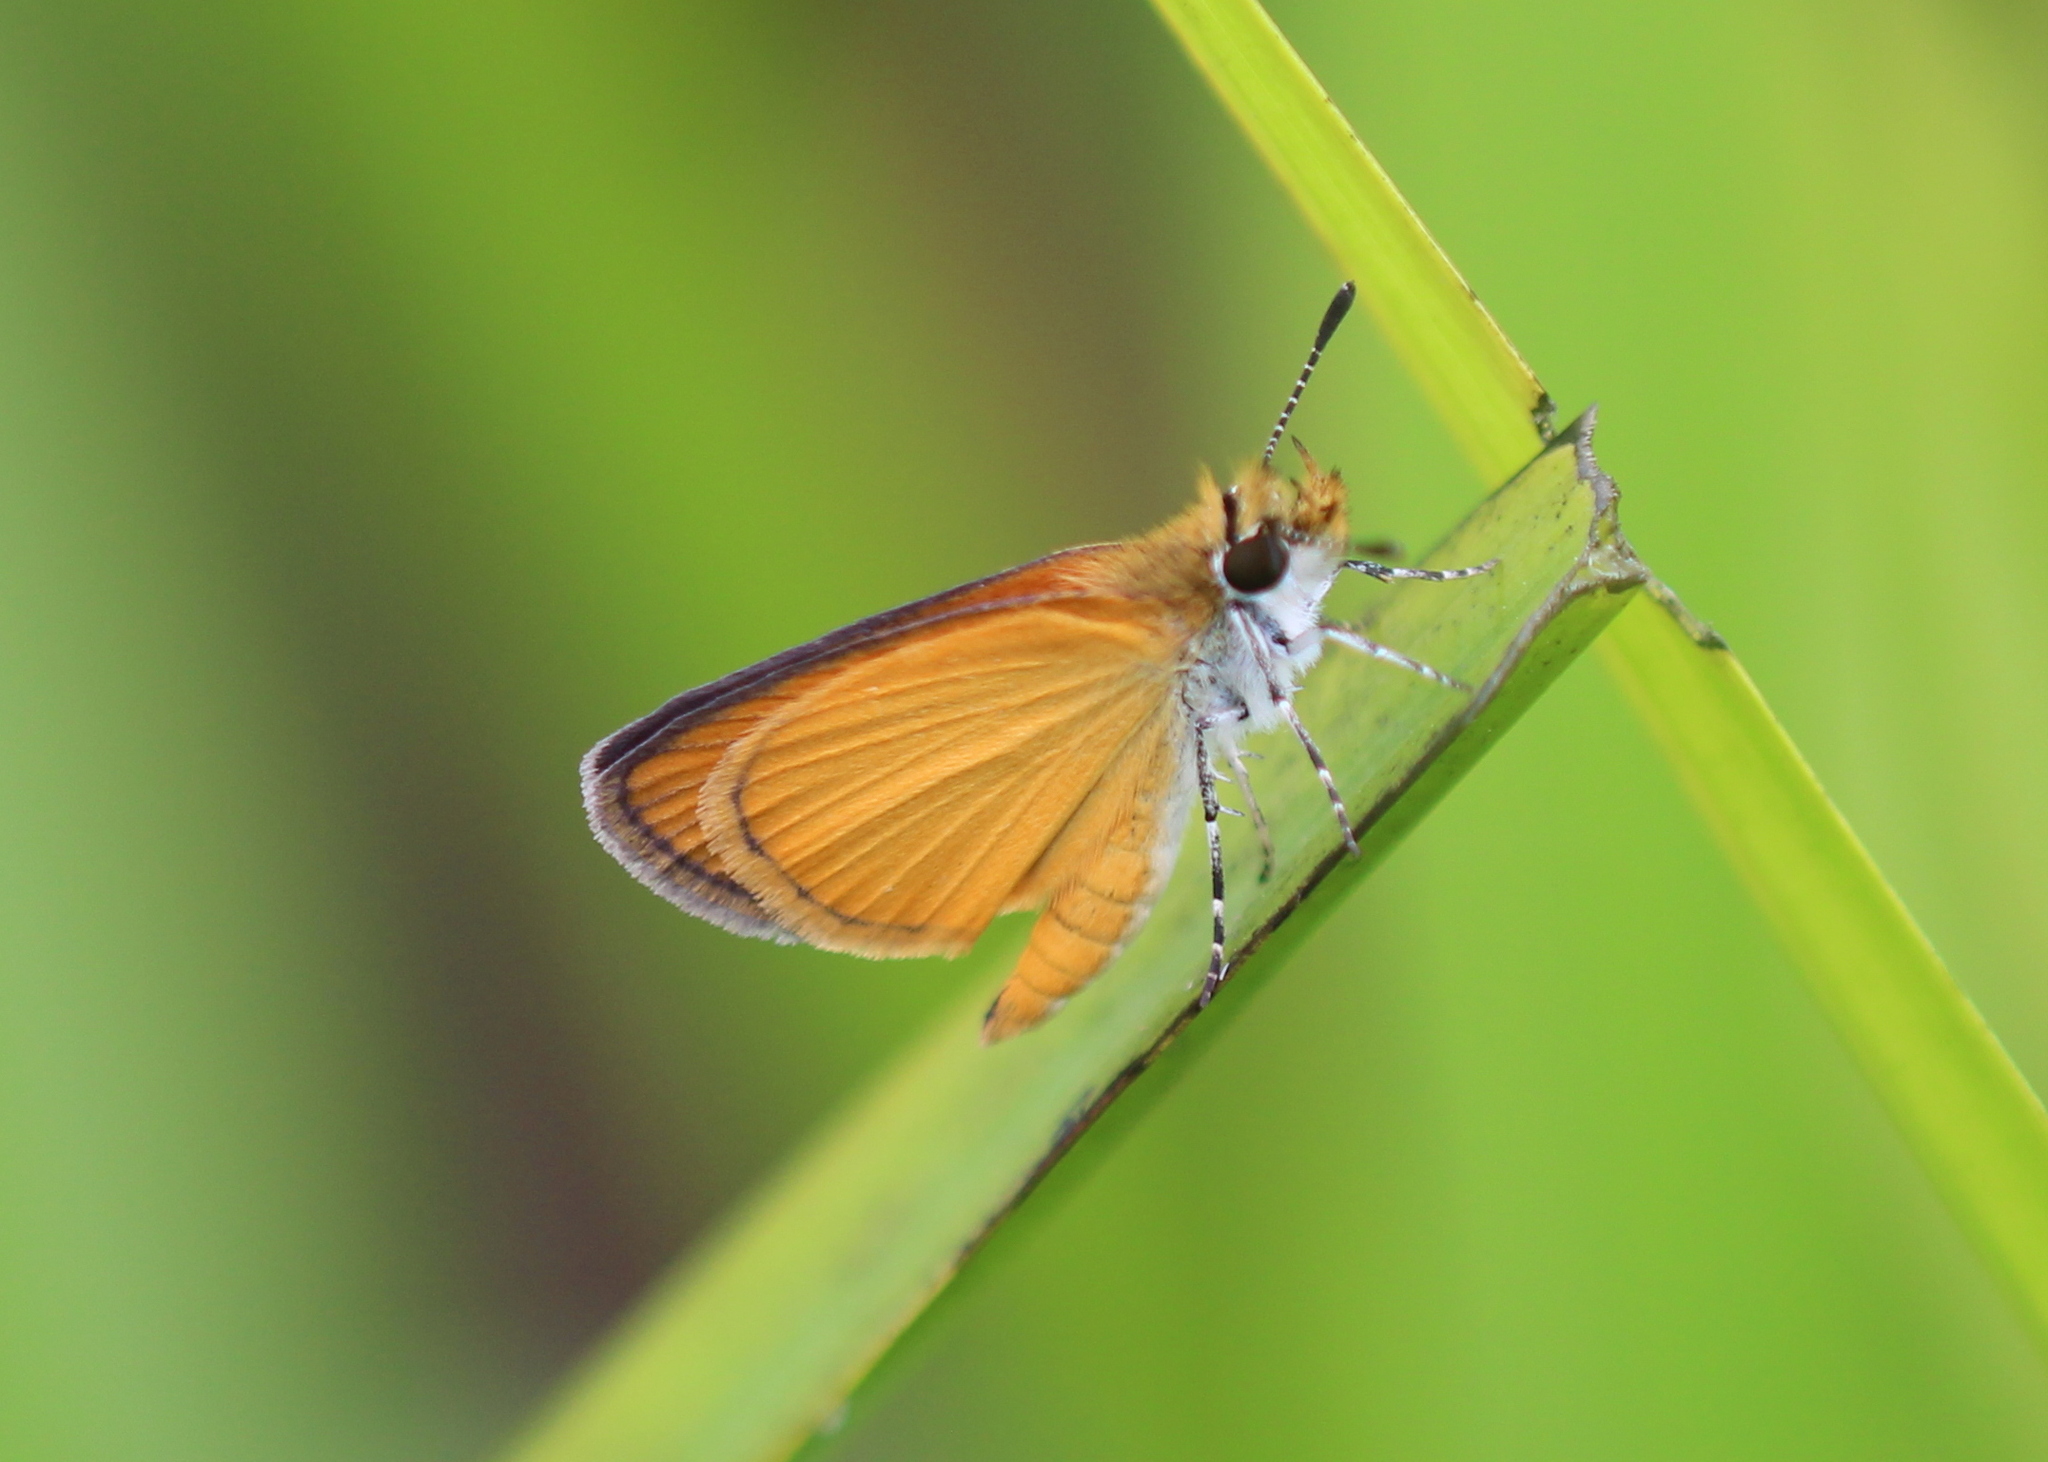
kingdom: Animalia
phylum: Arthropoda
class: Insecta
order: Lepidoptera
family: Hesperiidae
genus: Ancyloxypha
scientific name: Ancyloxypha numitor
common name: Least skipper
